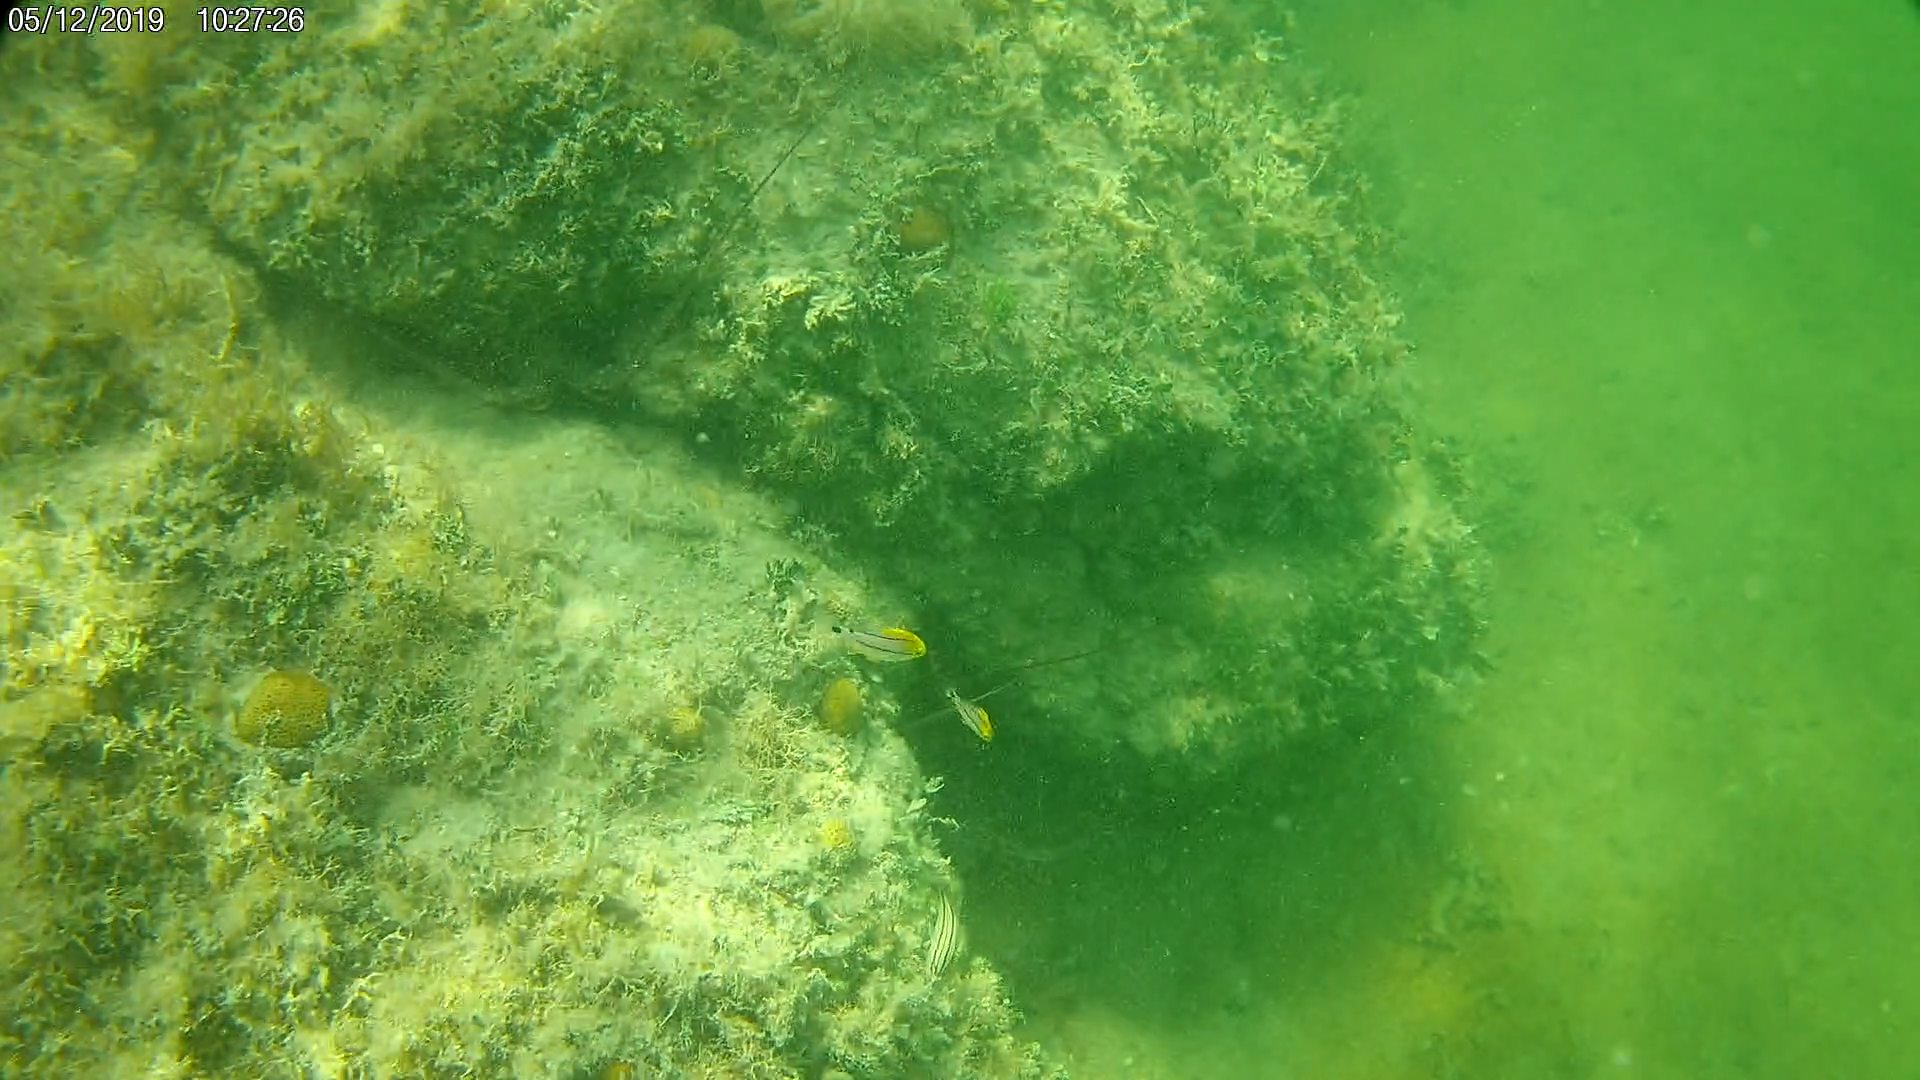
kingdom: Animalia
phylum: Chordata
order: Perciformes
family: Haemulidae
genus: Anisotremus
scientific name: Anisotremus virginicus
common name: Porkfish
